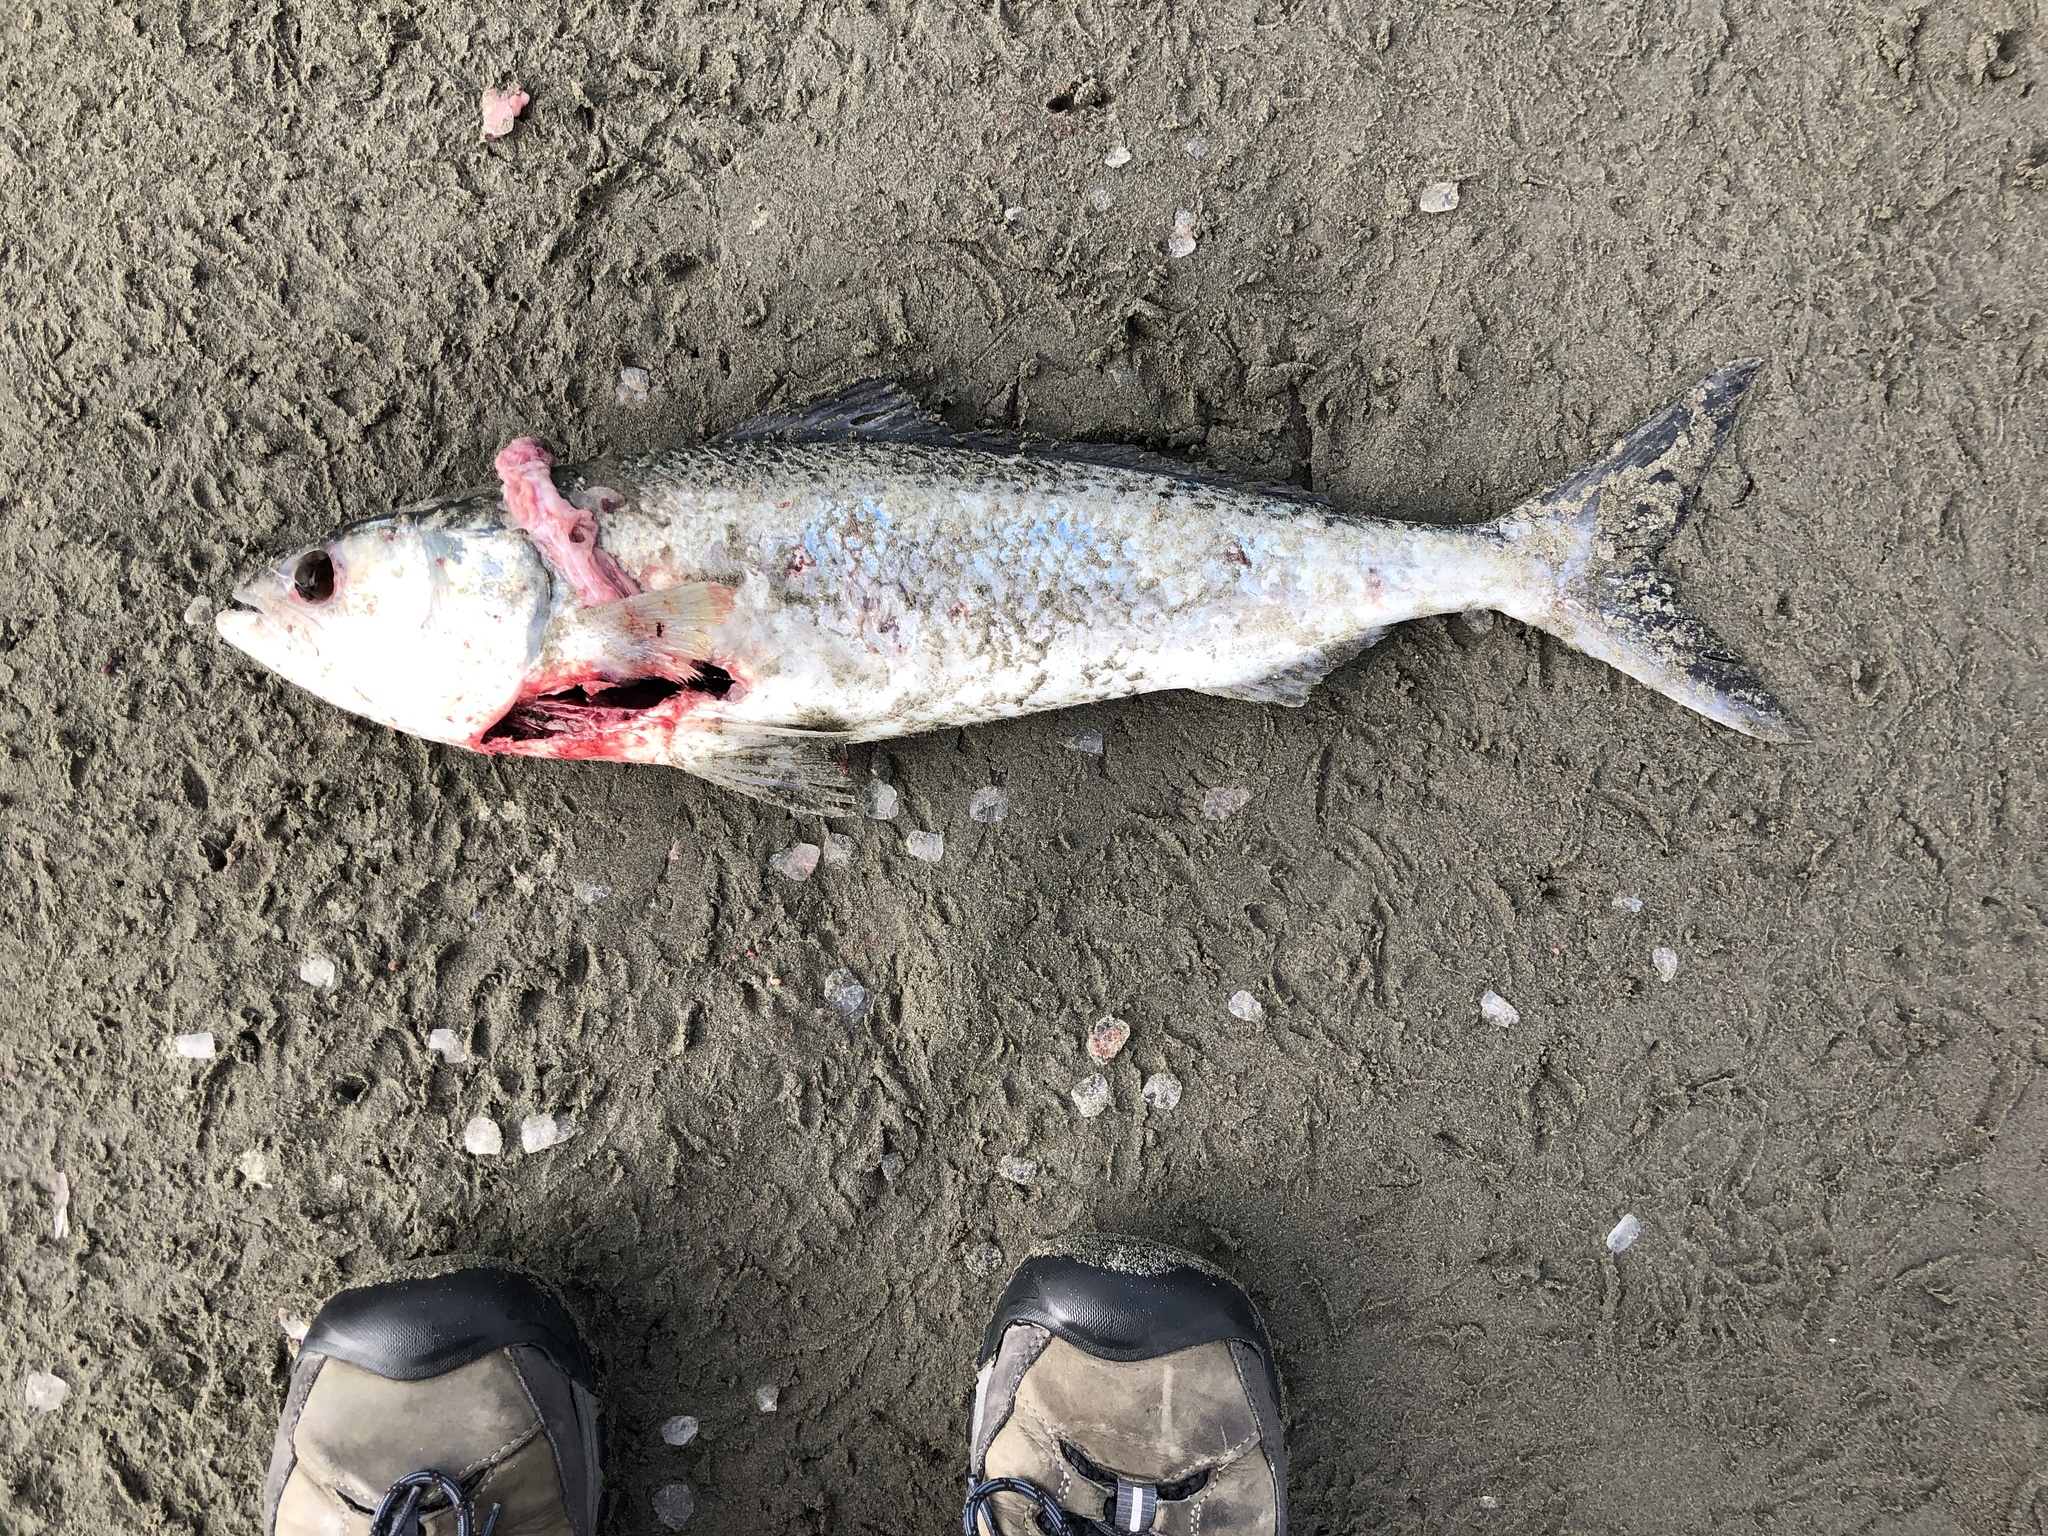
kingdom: Animalia
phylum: Chordata
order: Perciformes
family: Arripidae
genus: Arripis
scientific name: Arripis trutta
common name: Kahawai
